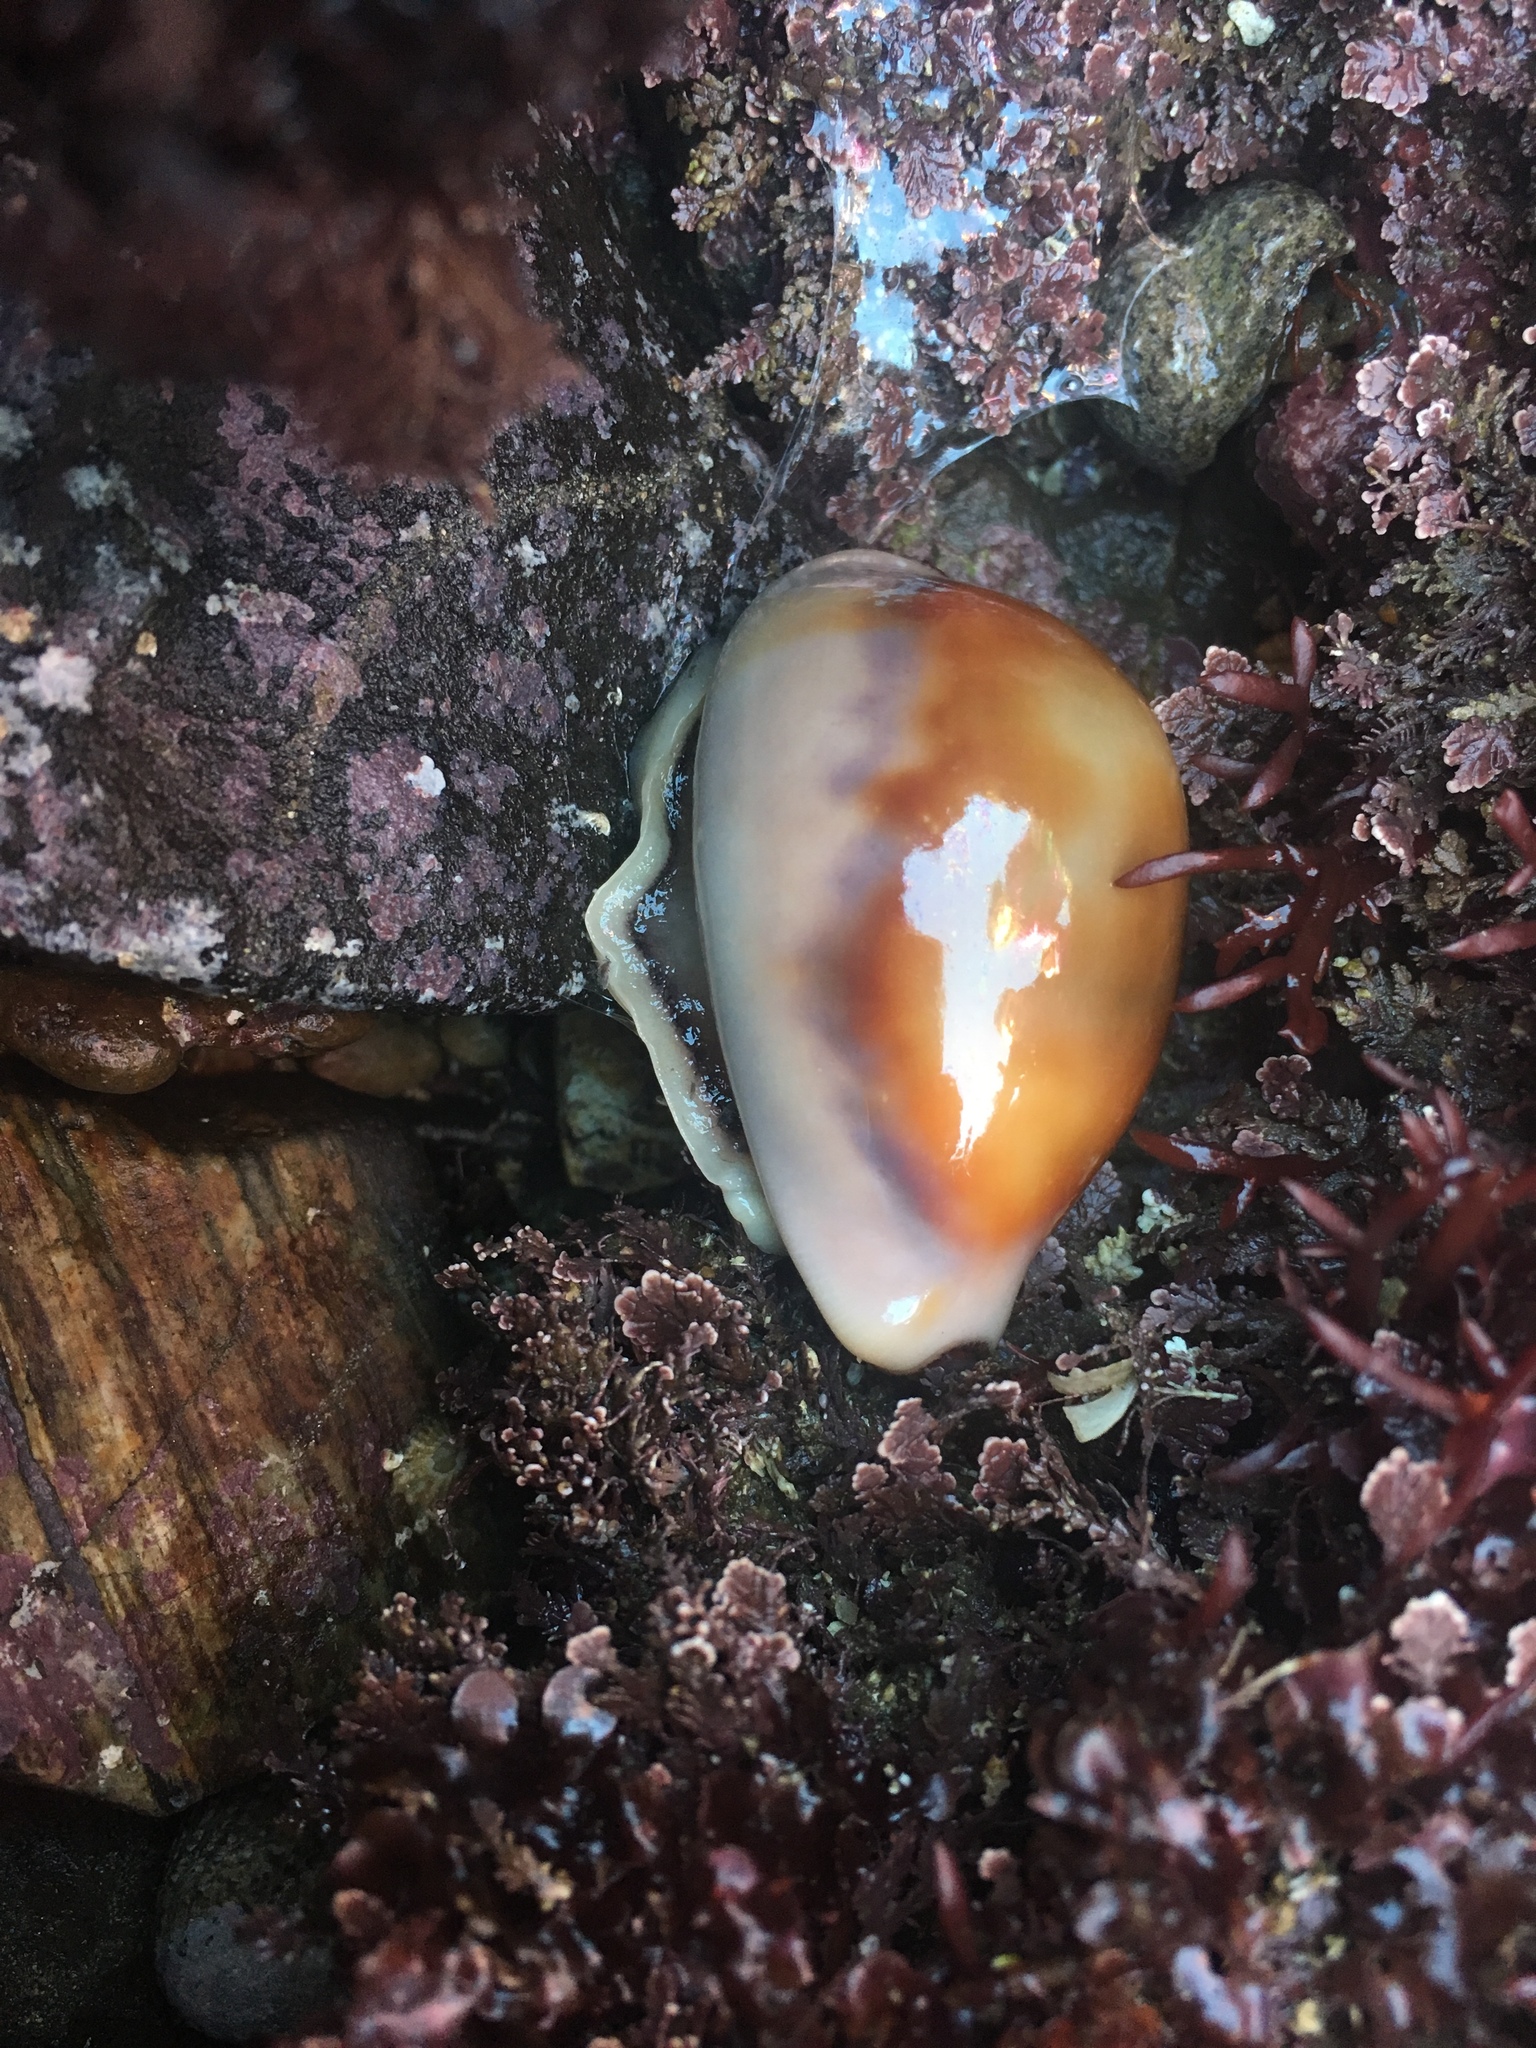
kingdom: Animalia
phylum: Mollusca
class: Gastropoda
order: Littorinimorpha
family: Cypraeidae
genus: Neobernaya
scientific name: Neobernaya spadicea
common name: Chestnut cowrie
